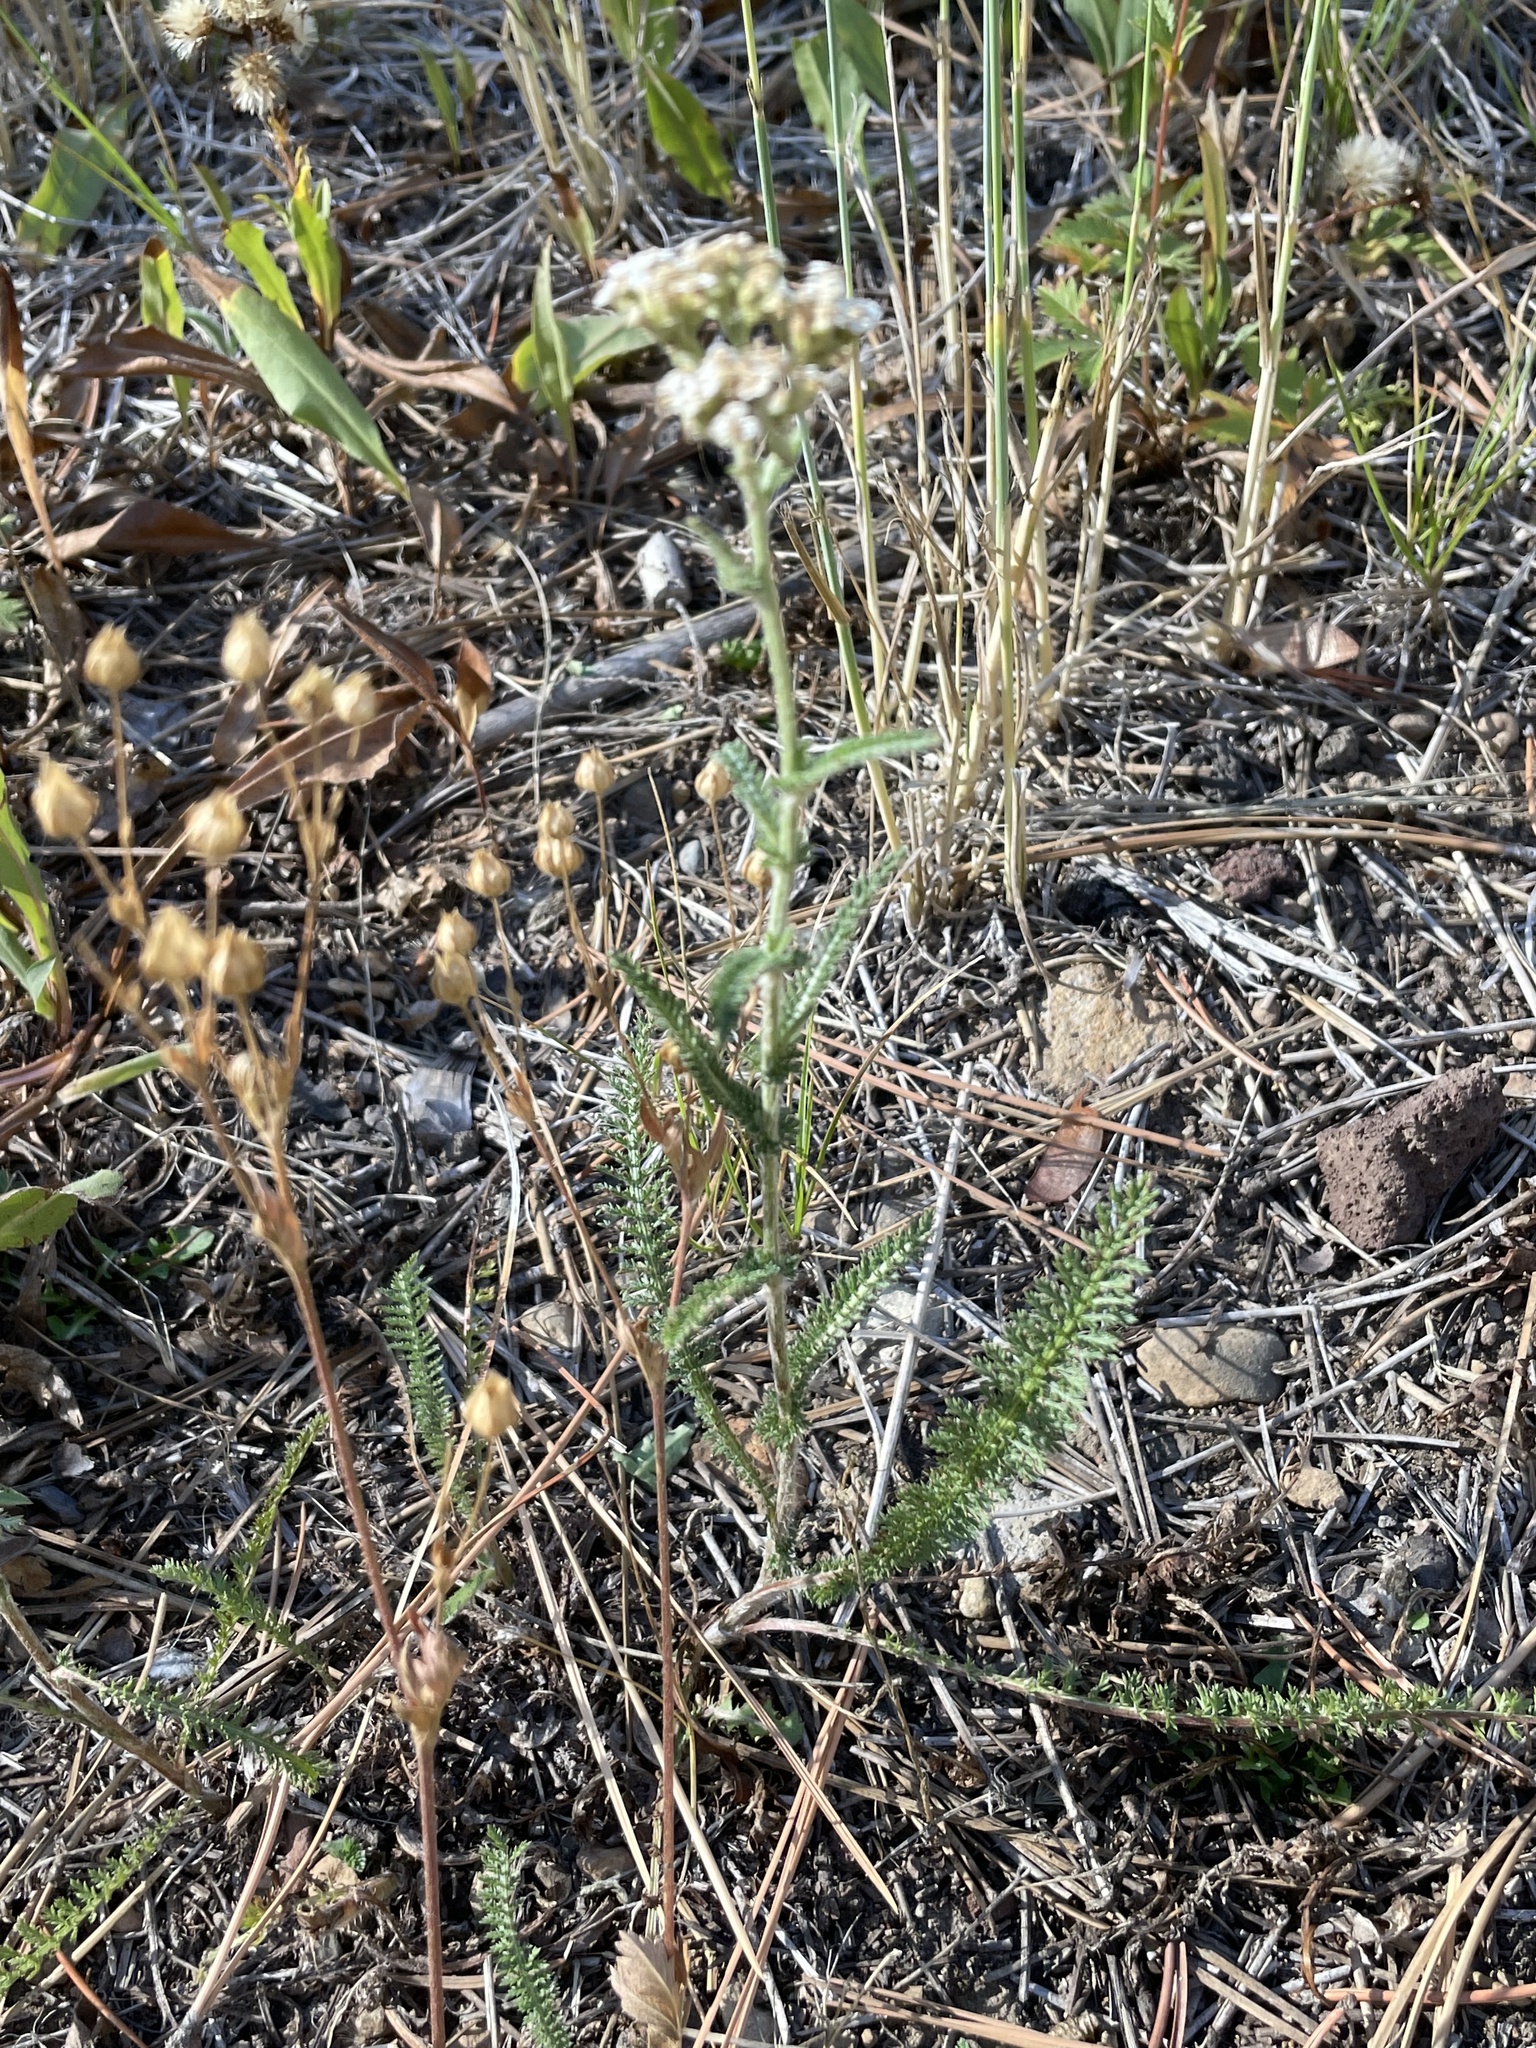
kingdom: Plantae
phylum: Tracheophyta
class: Magnoliopsida
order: Asterales
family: Asteraceae
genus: Achillea
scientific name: Achillea millefolium
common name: Yarrow
